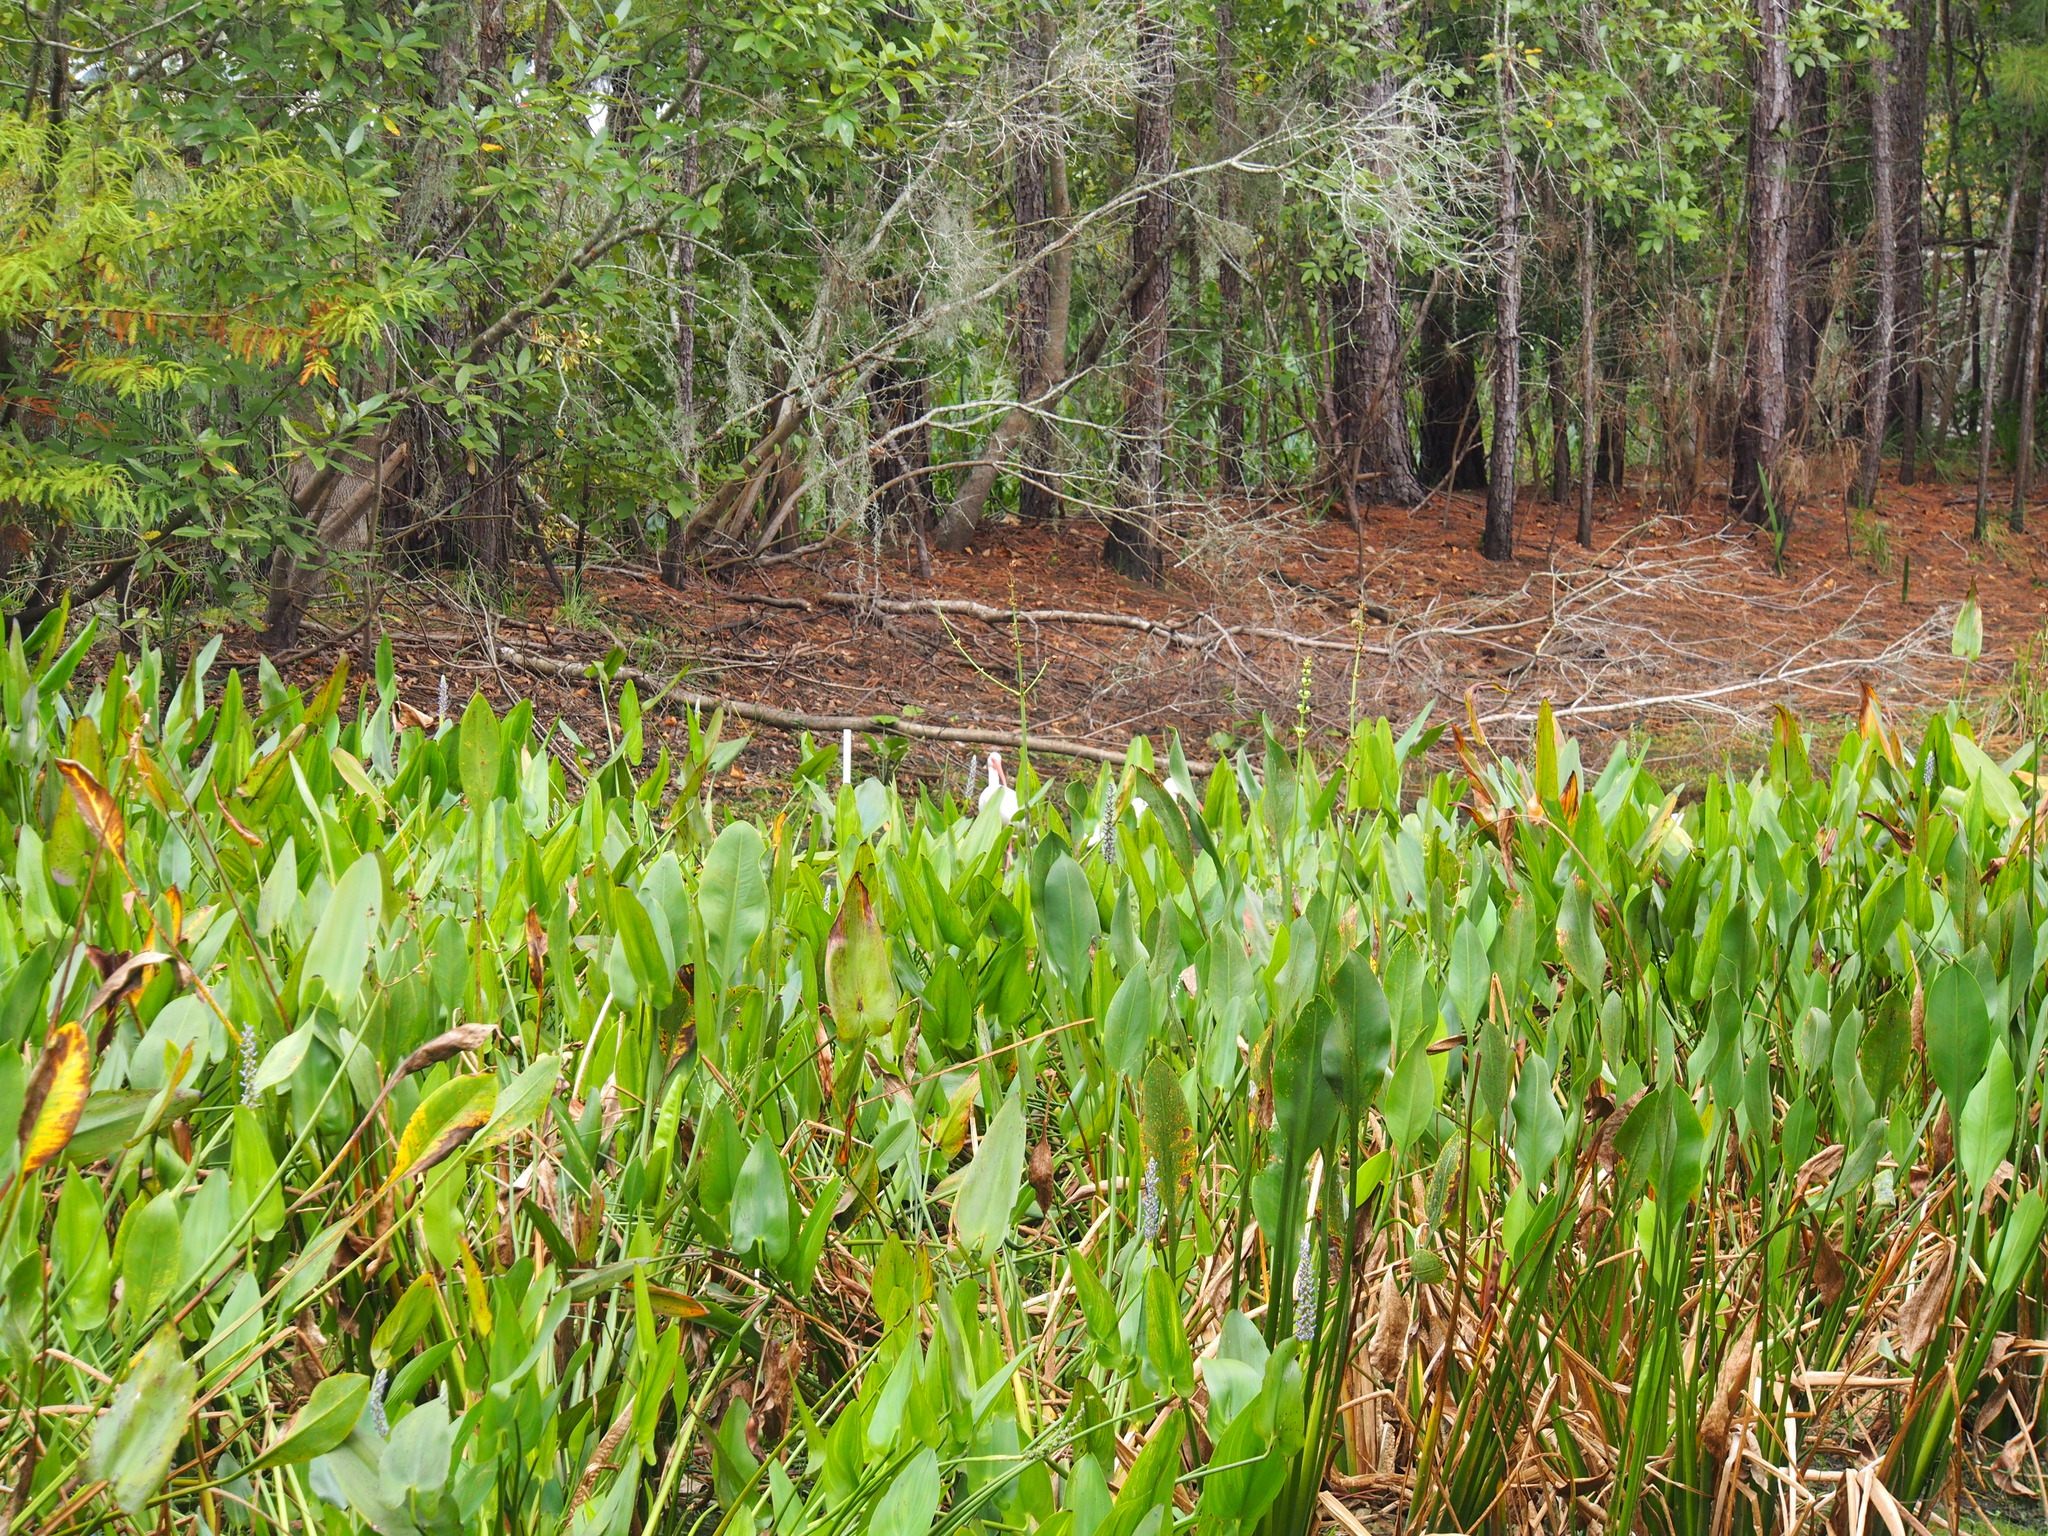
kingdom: Plantae
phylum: Tracheophyta
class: Liliopsida
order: Alismatales
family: Alismataceae
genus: Sagittaria
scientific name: Sagittaria lancifolia
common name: Lance-leaf arrowhead
